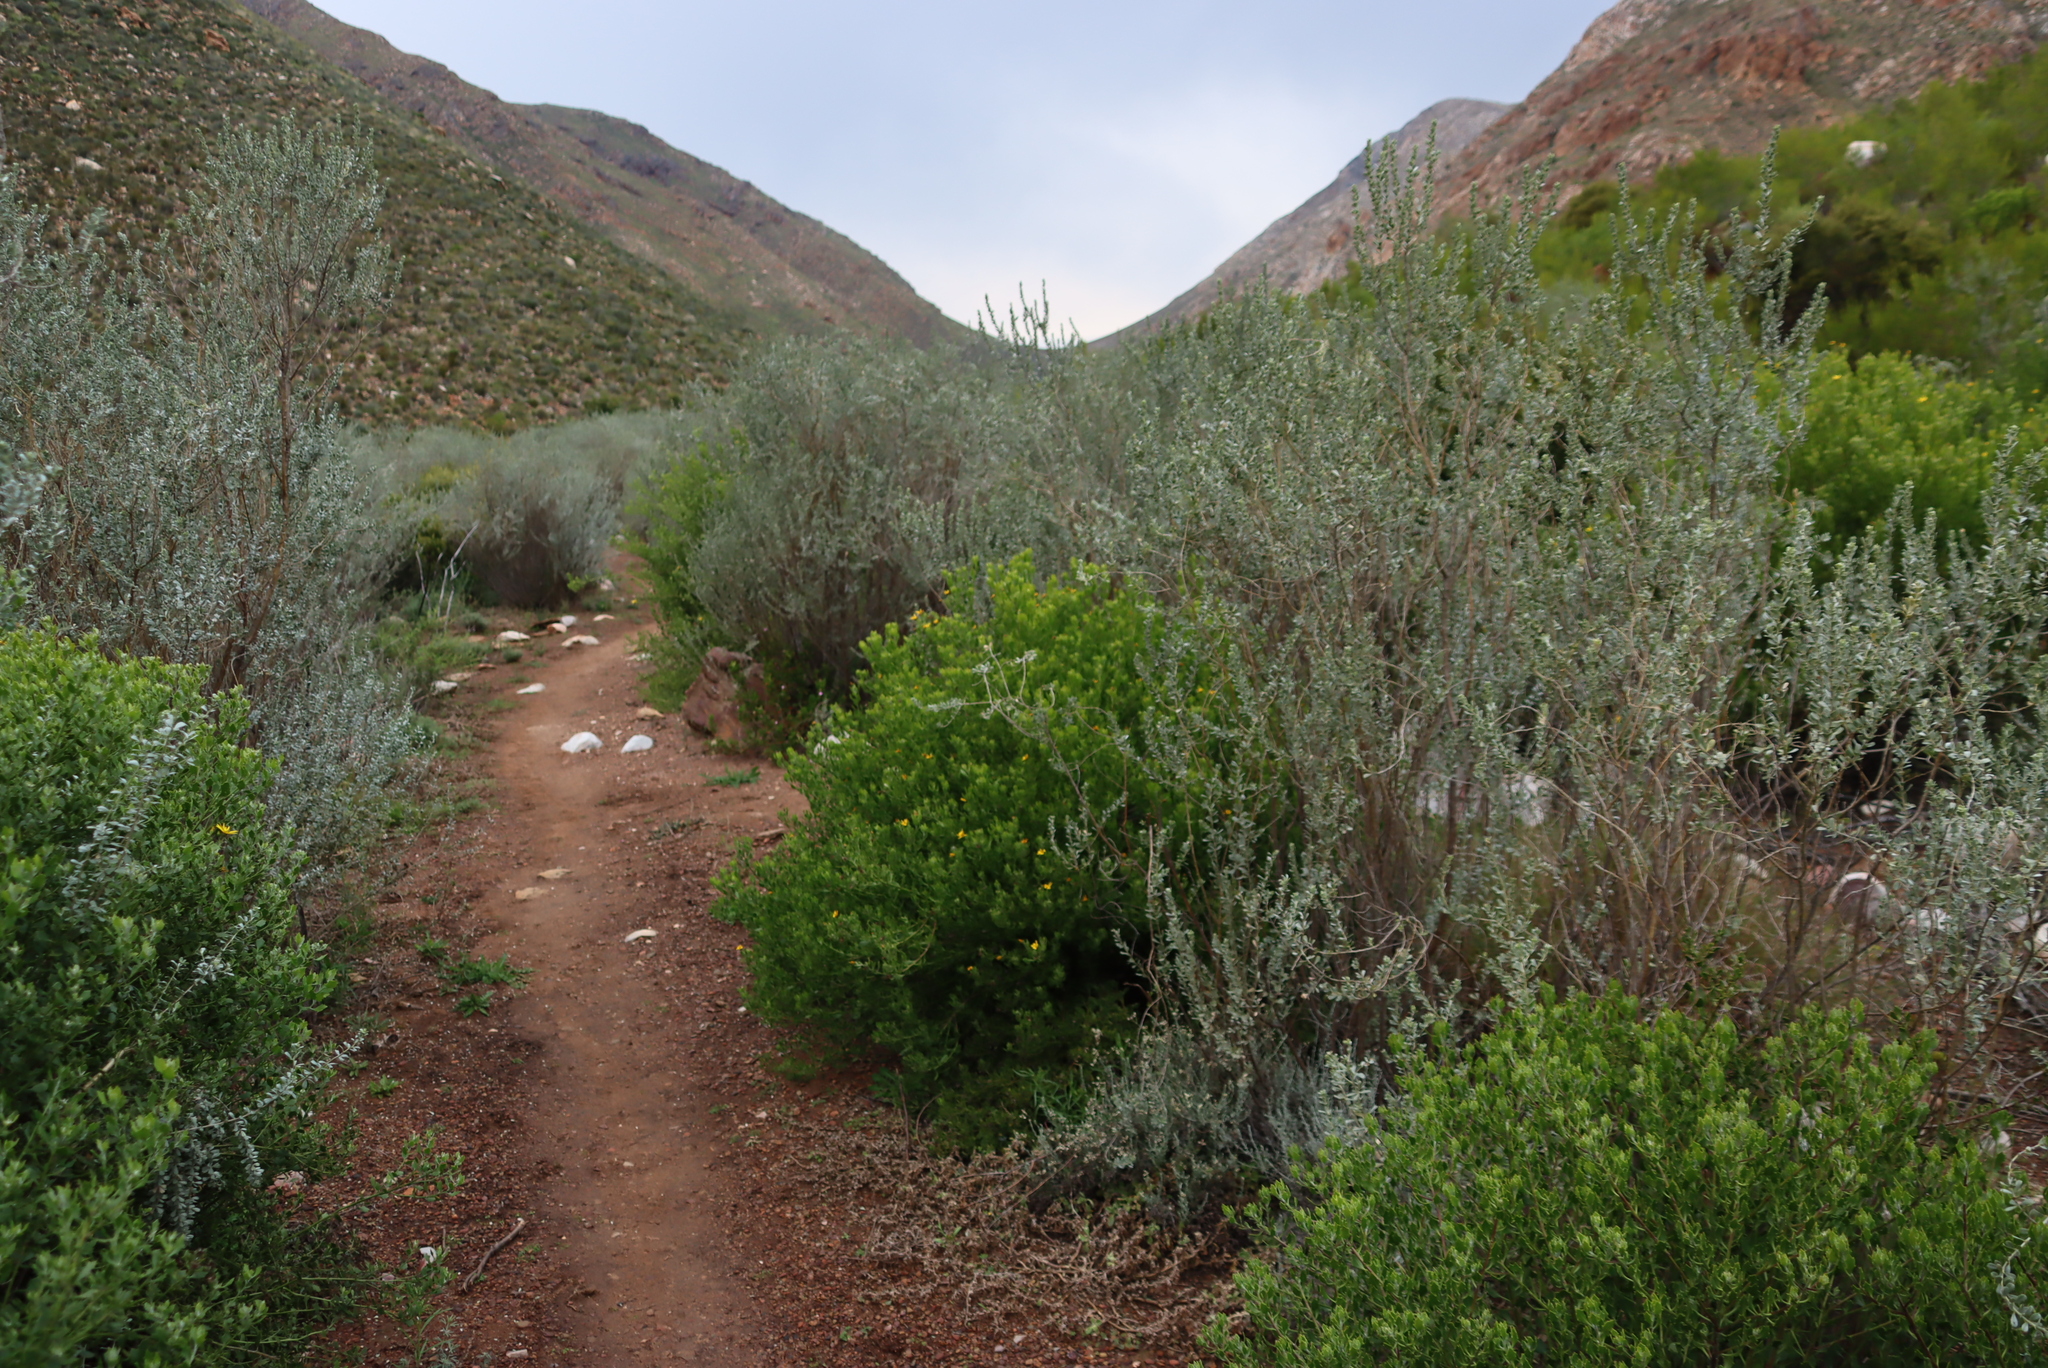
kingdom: Plantae
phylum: Tracheophyta
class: Magnoliopsida
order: Asterales
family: Asteraceae
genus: Osteospermum
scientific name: Osteospermum moniliferum
